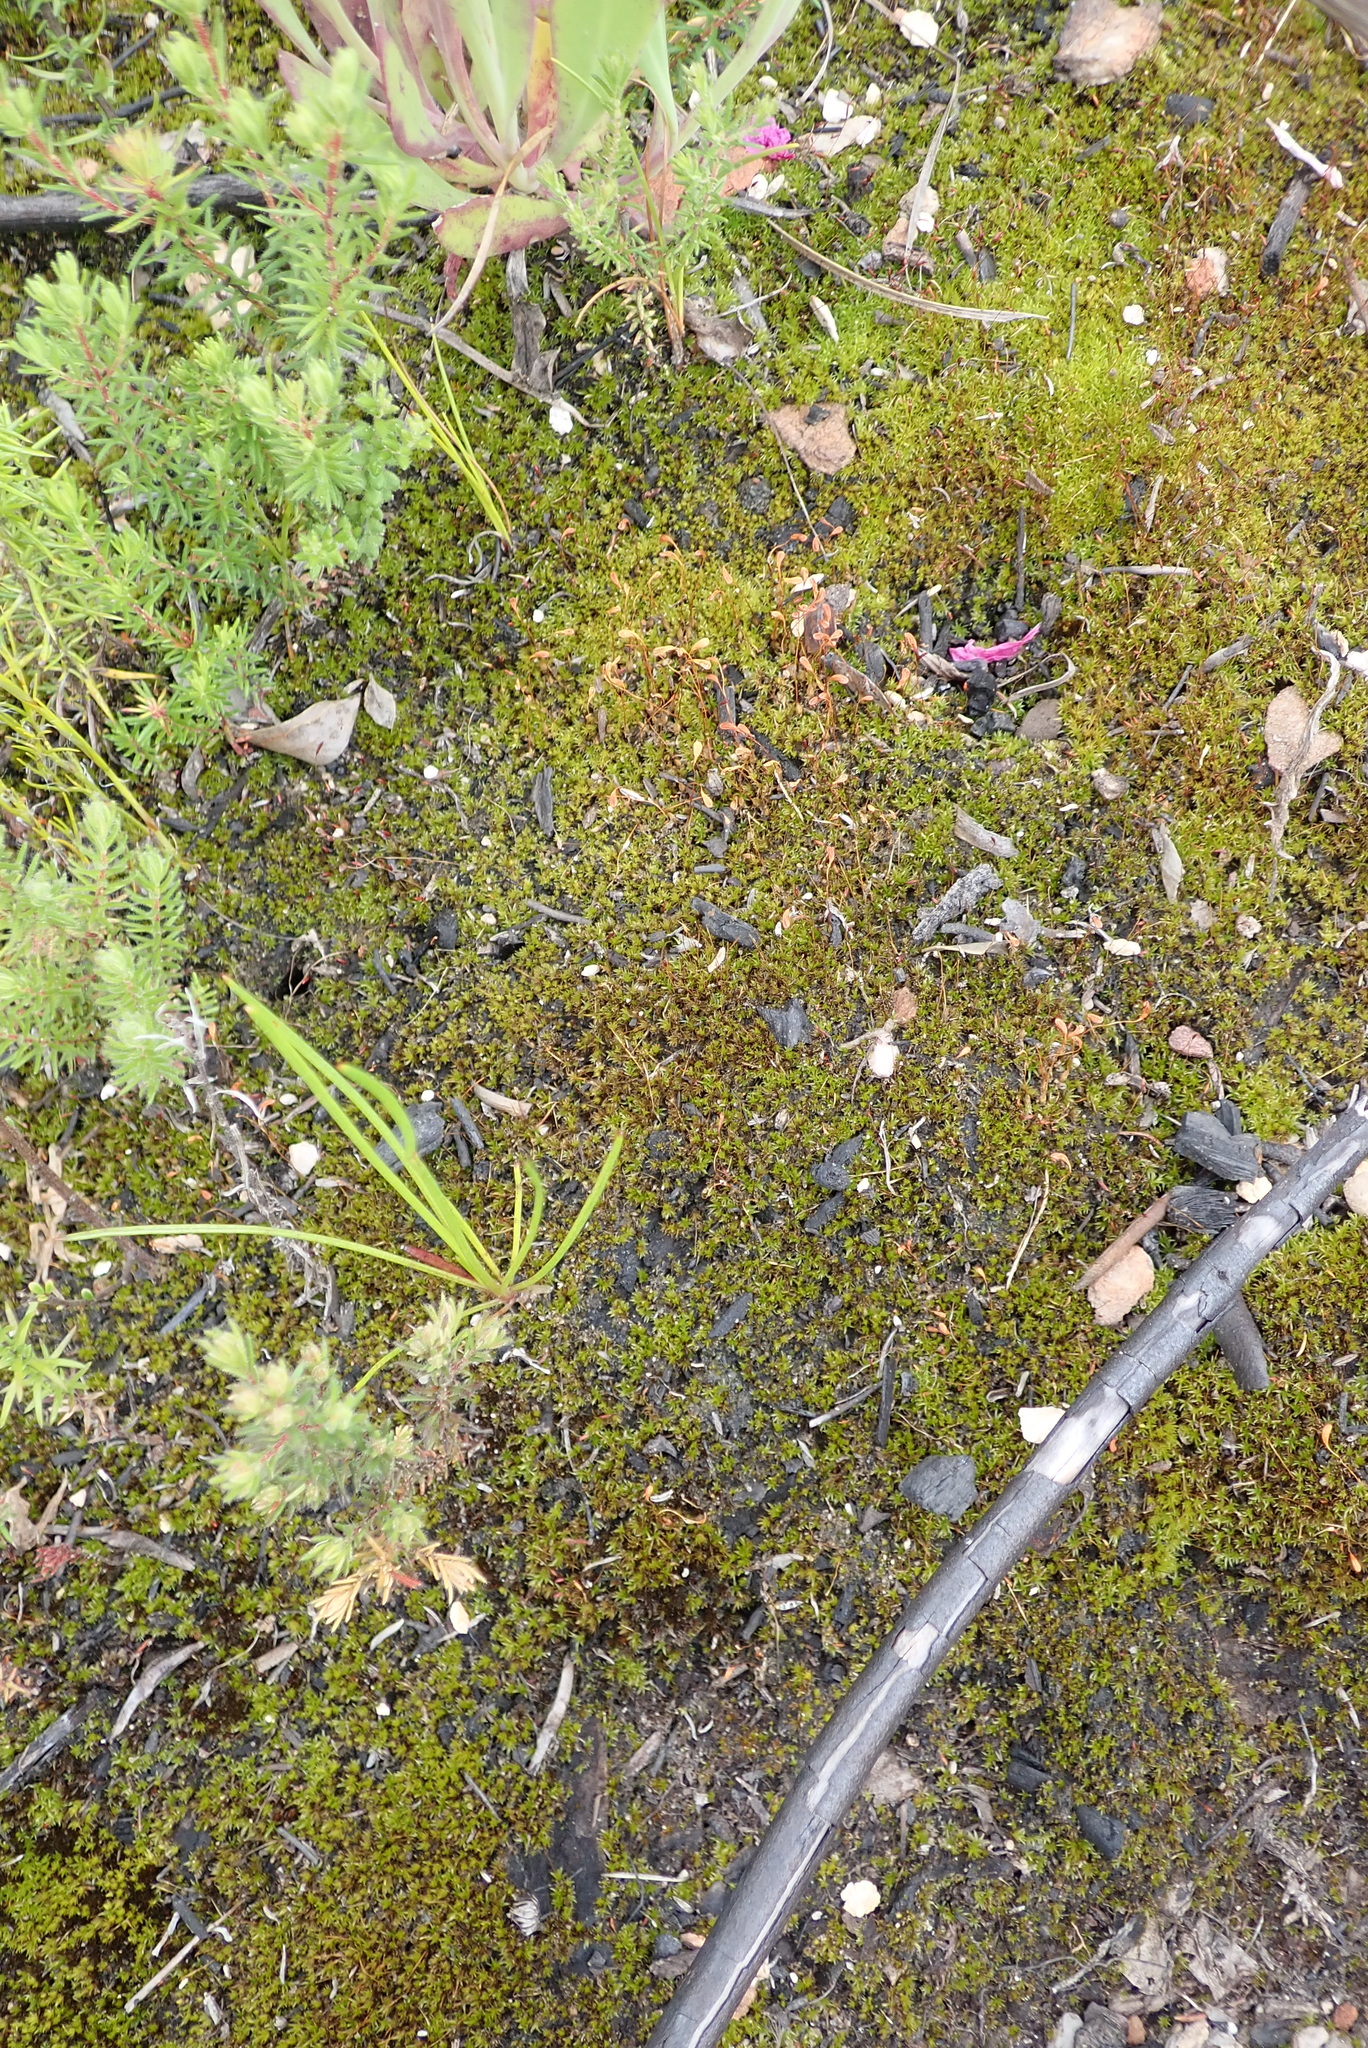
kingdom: Plantae
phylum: Bryophyta
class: Bryopsida
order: Dicranales
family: Ditrichaceae
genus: Ceratodon
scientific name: Ceratodon purpureus
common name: Redshank
